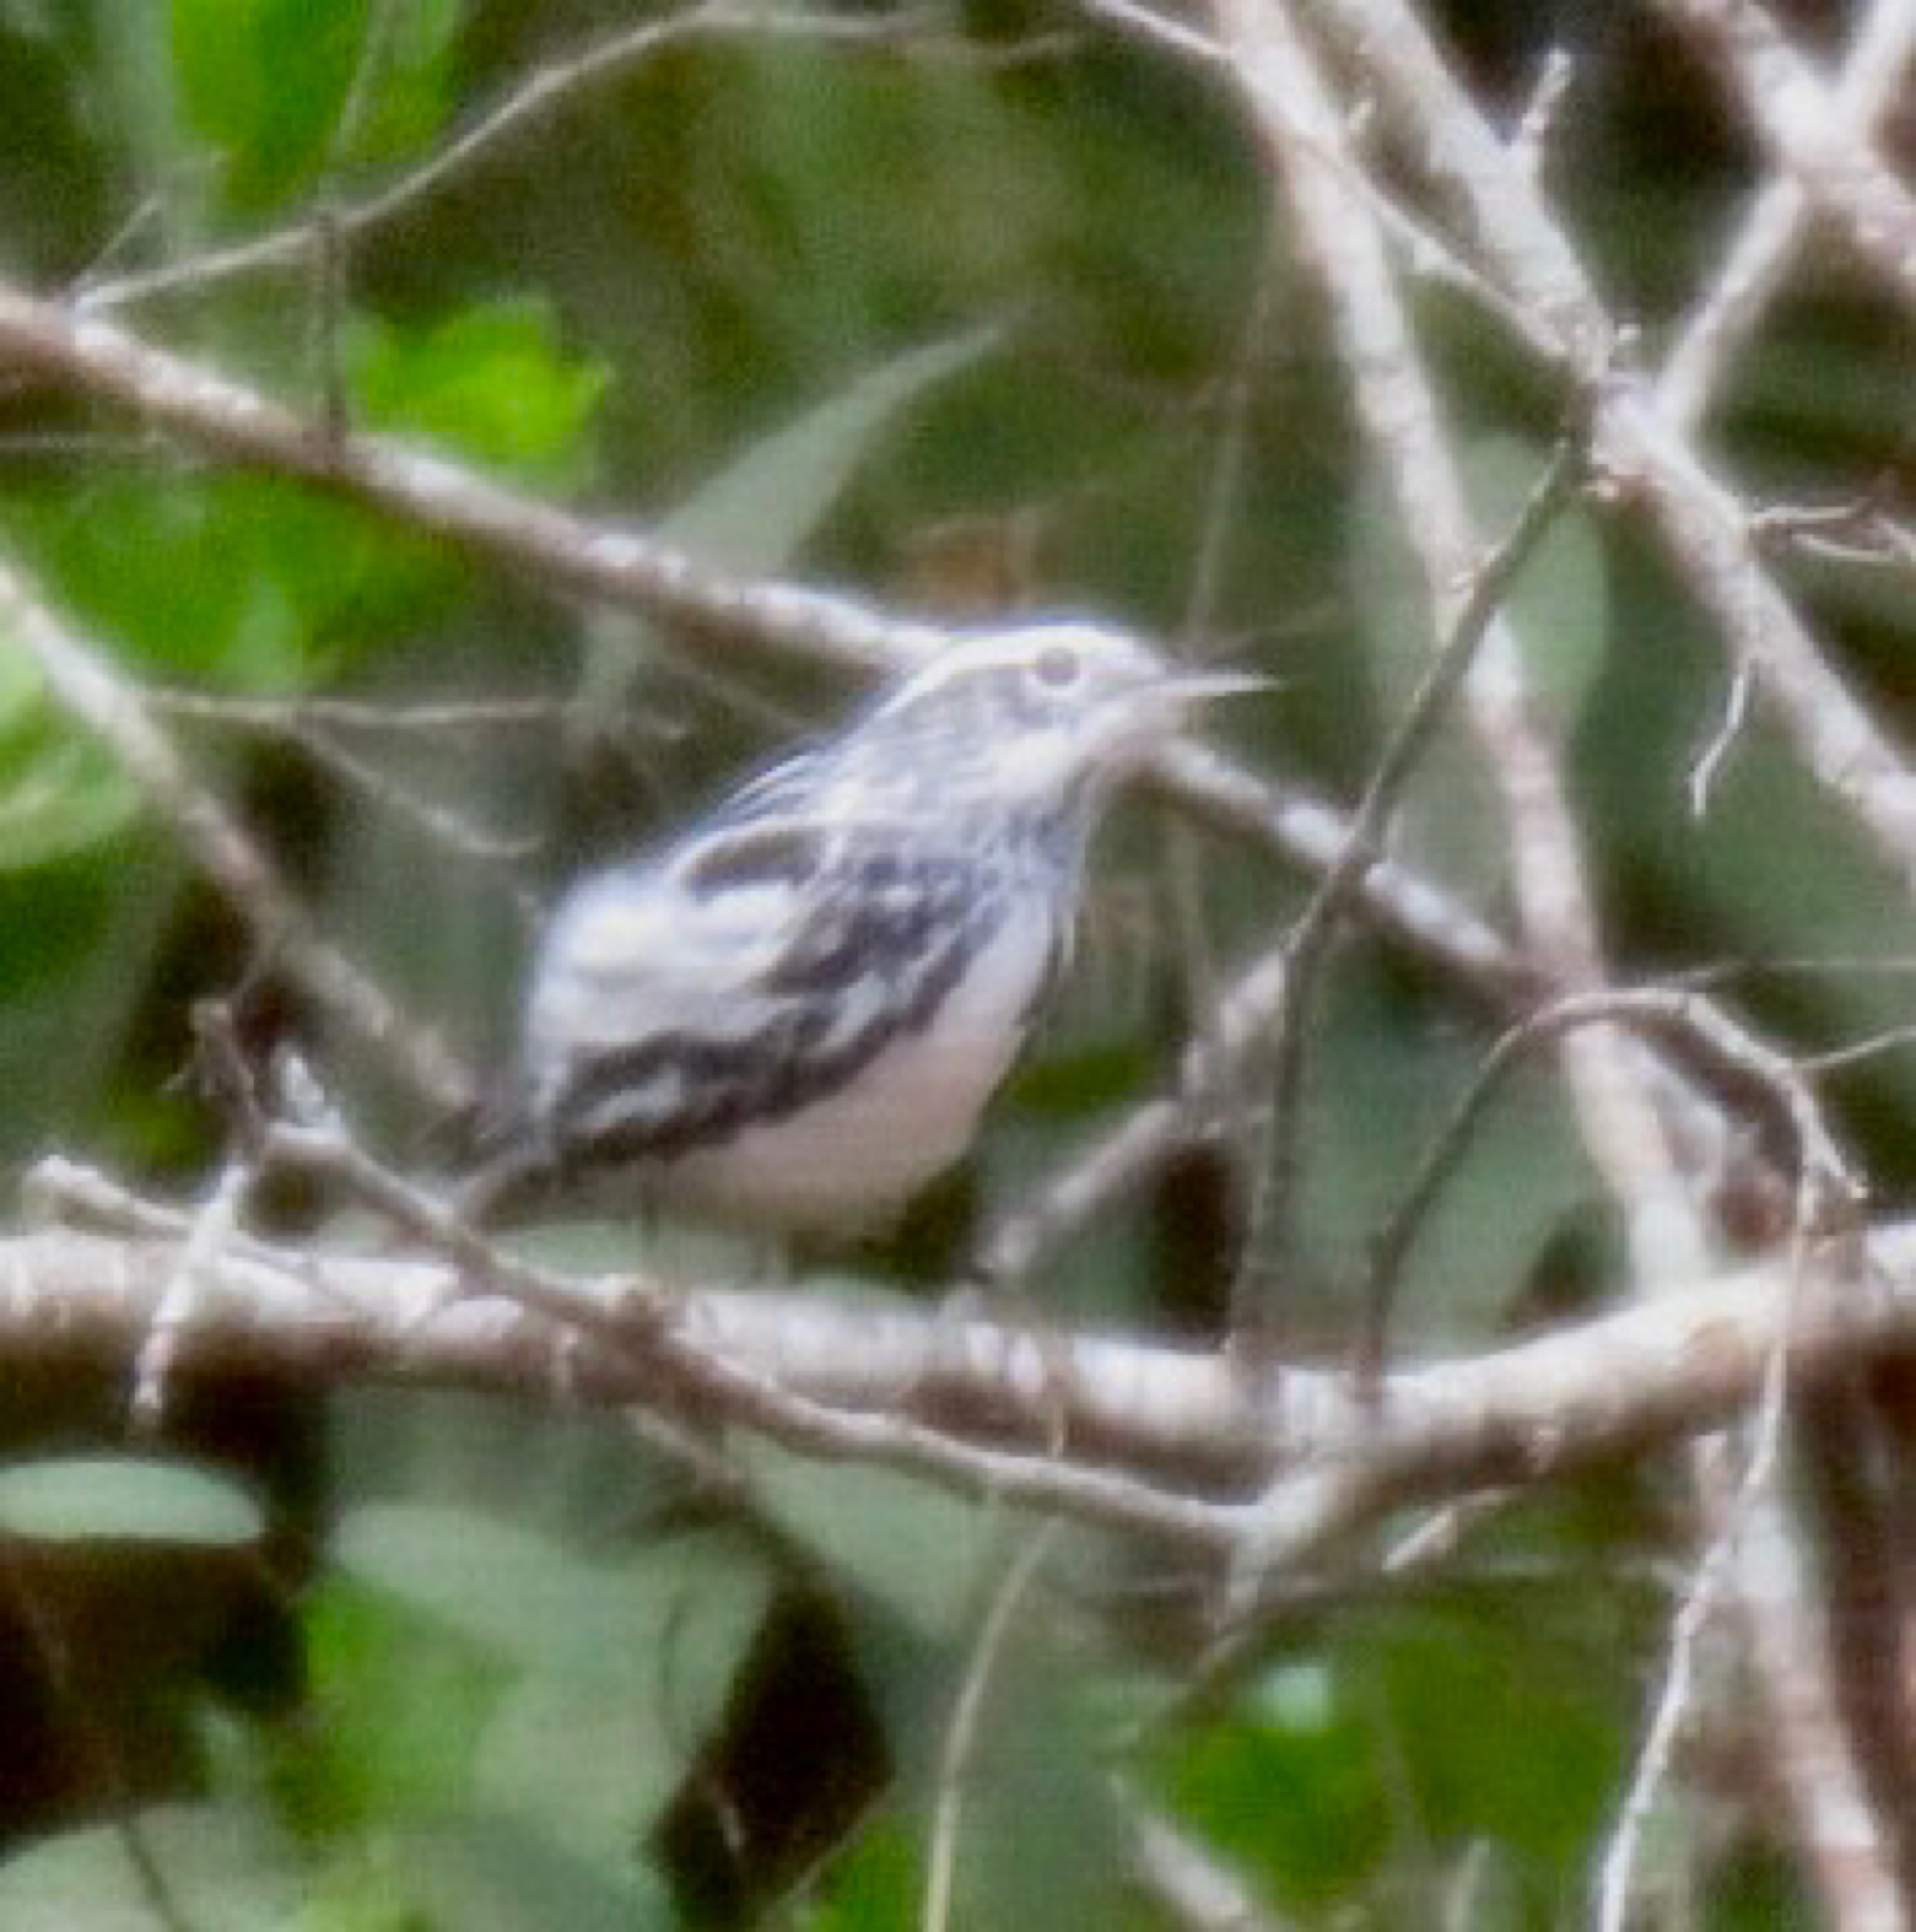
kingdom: Animalia
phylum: Chordata
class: Aves
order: Passeriformes
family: Parulidae
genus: Mniotilta
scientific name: Mniotilta varia
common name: Black-and-white warbler
